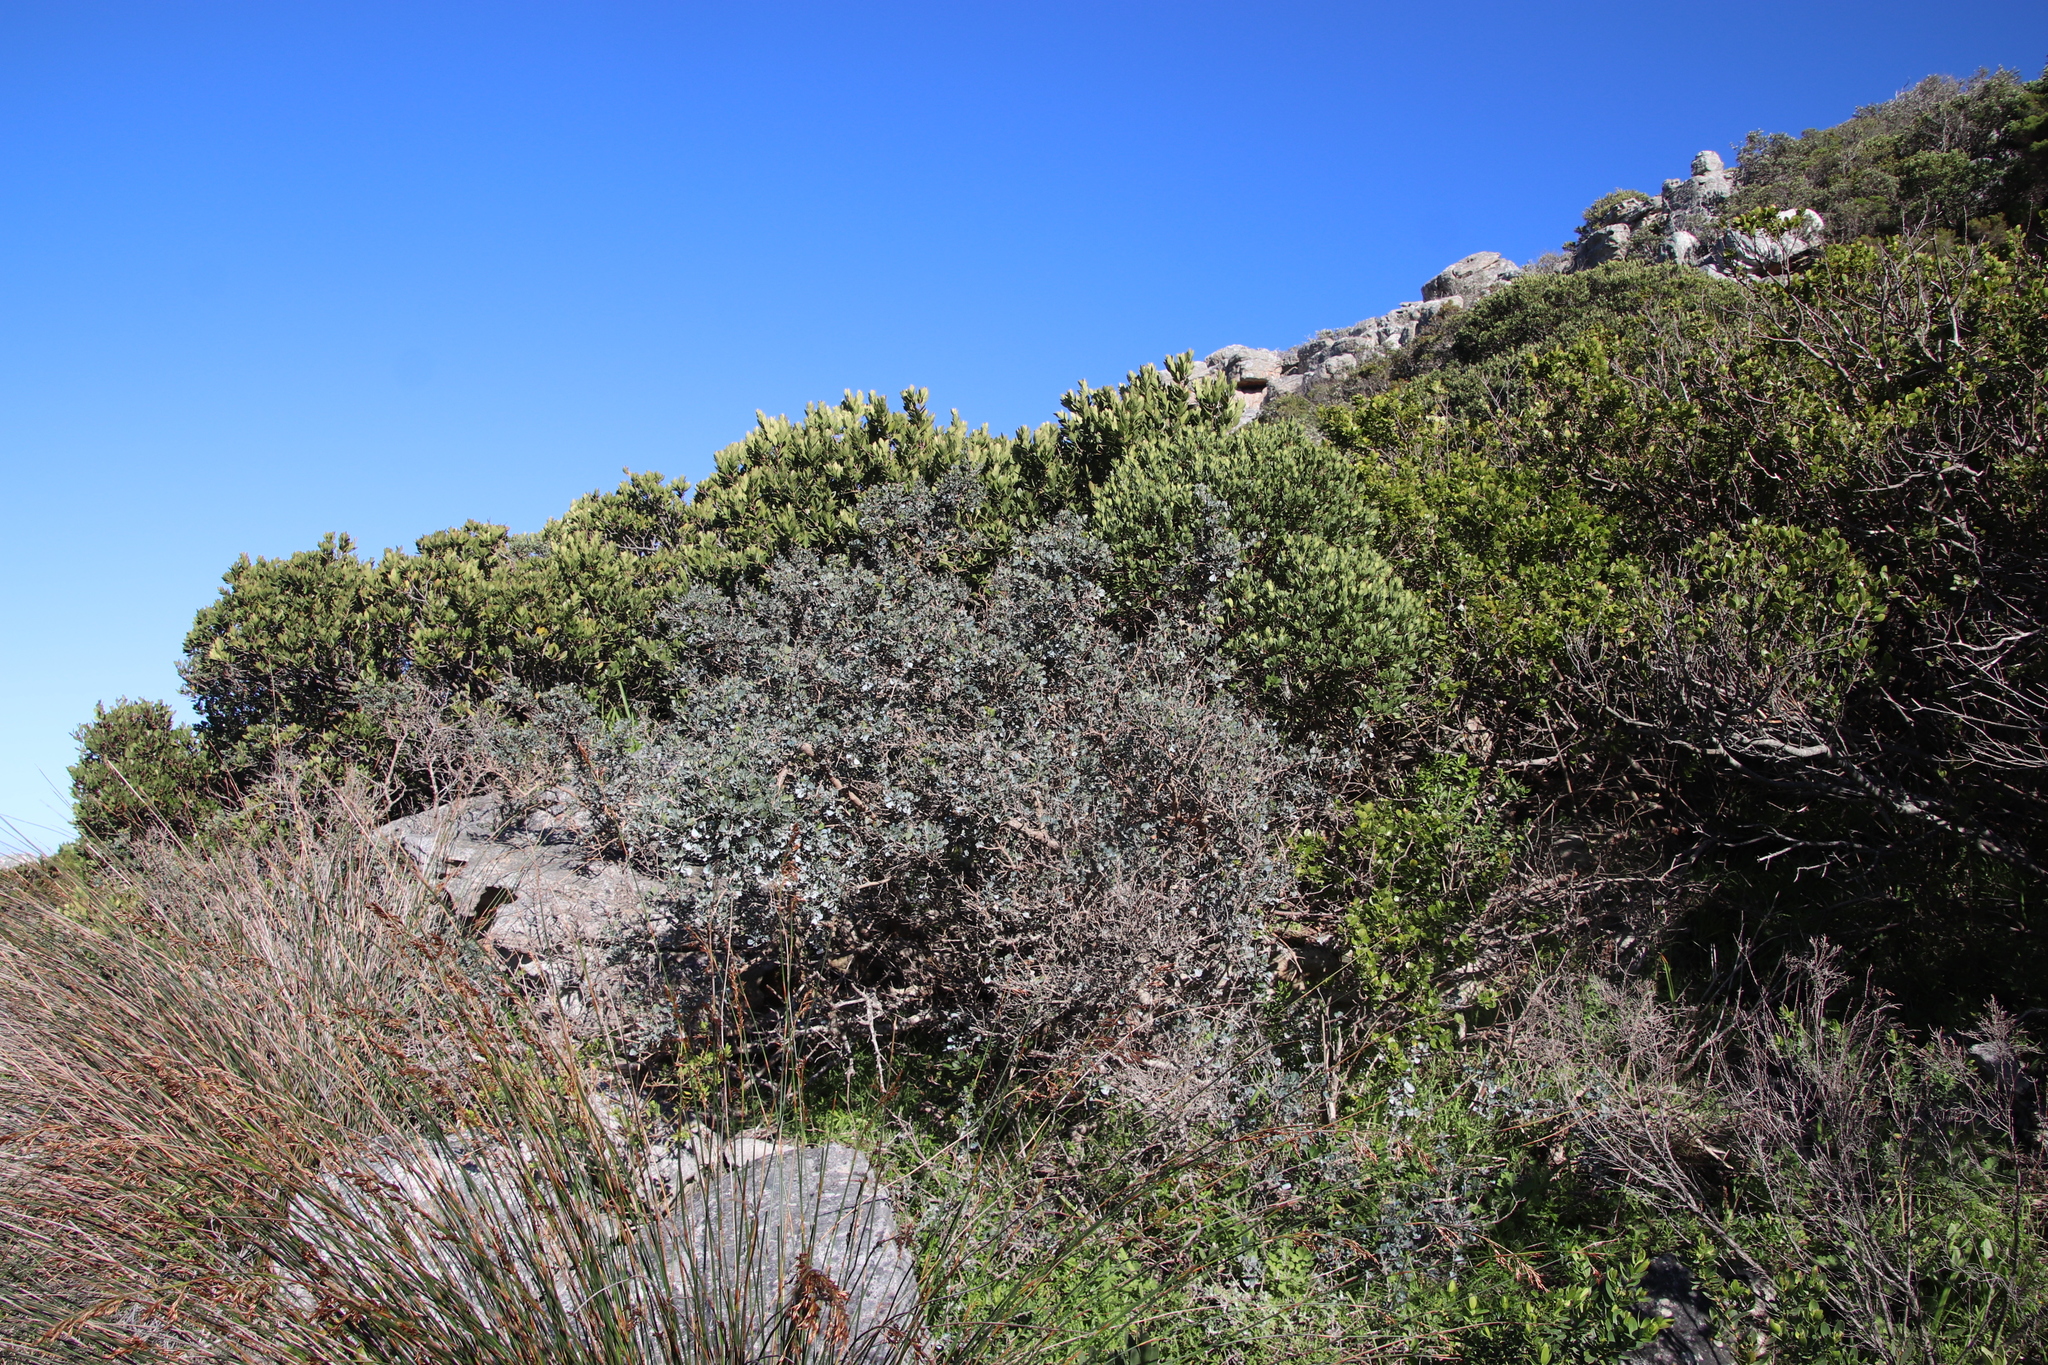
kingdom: Plantae
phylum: Tracheophyta
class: Magnoliopsida
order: Sapindales
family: Anacardiaceae
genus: Searsia
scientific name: Searsia glauca
